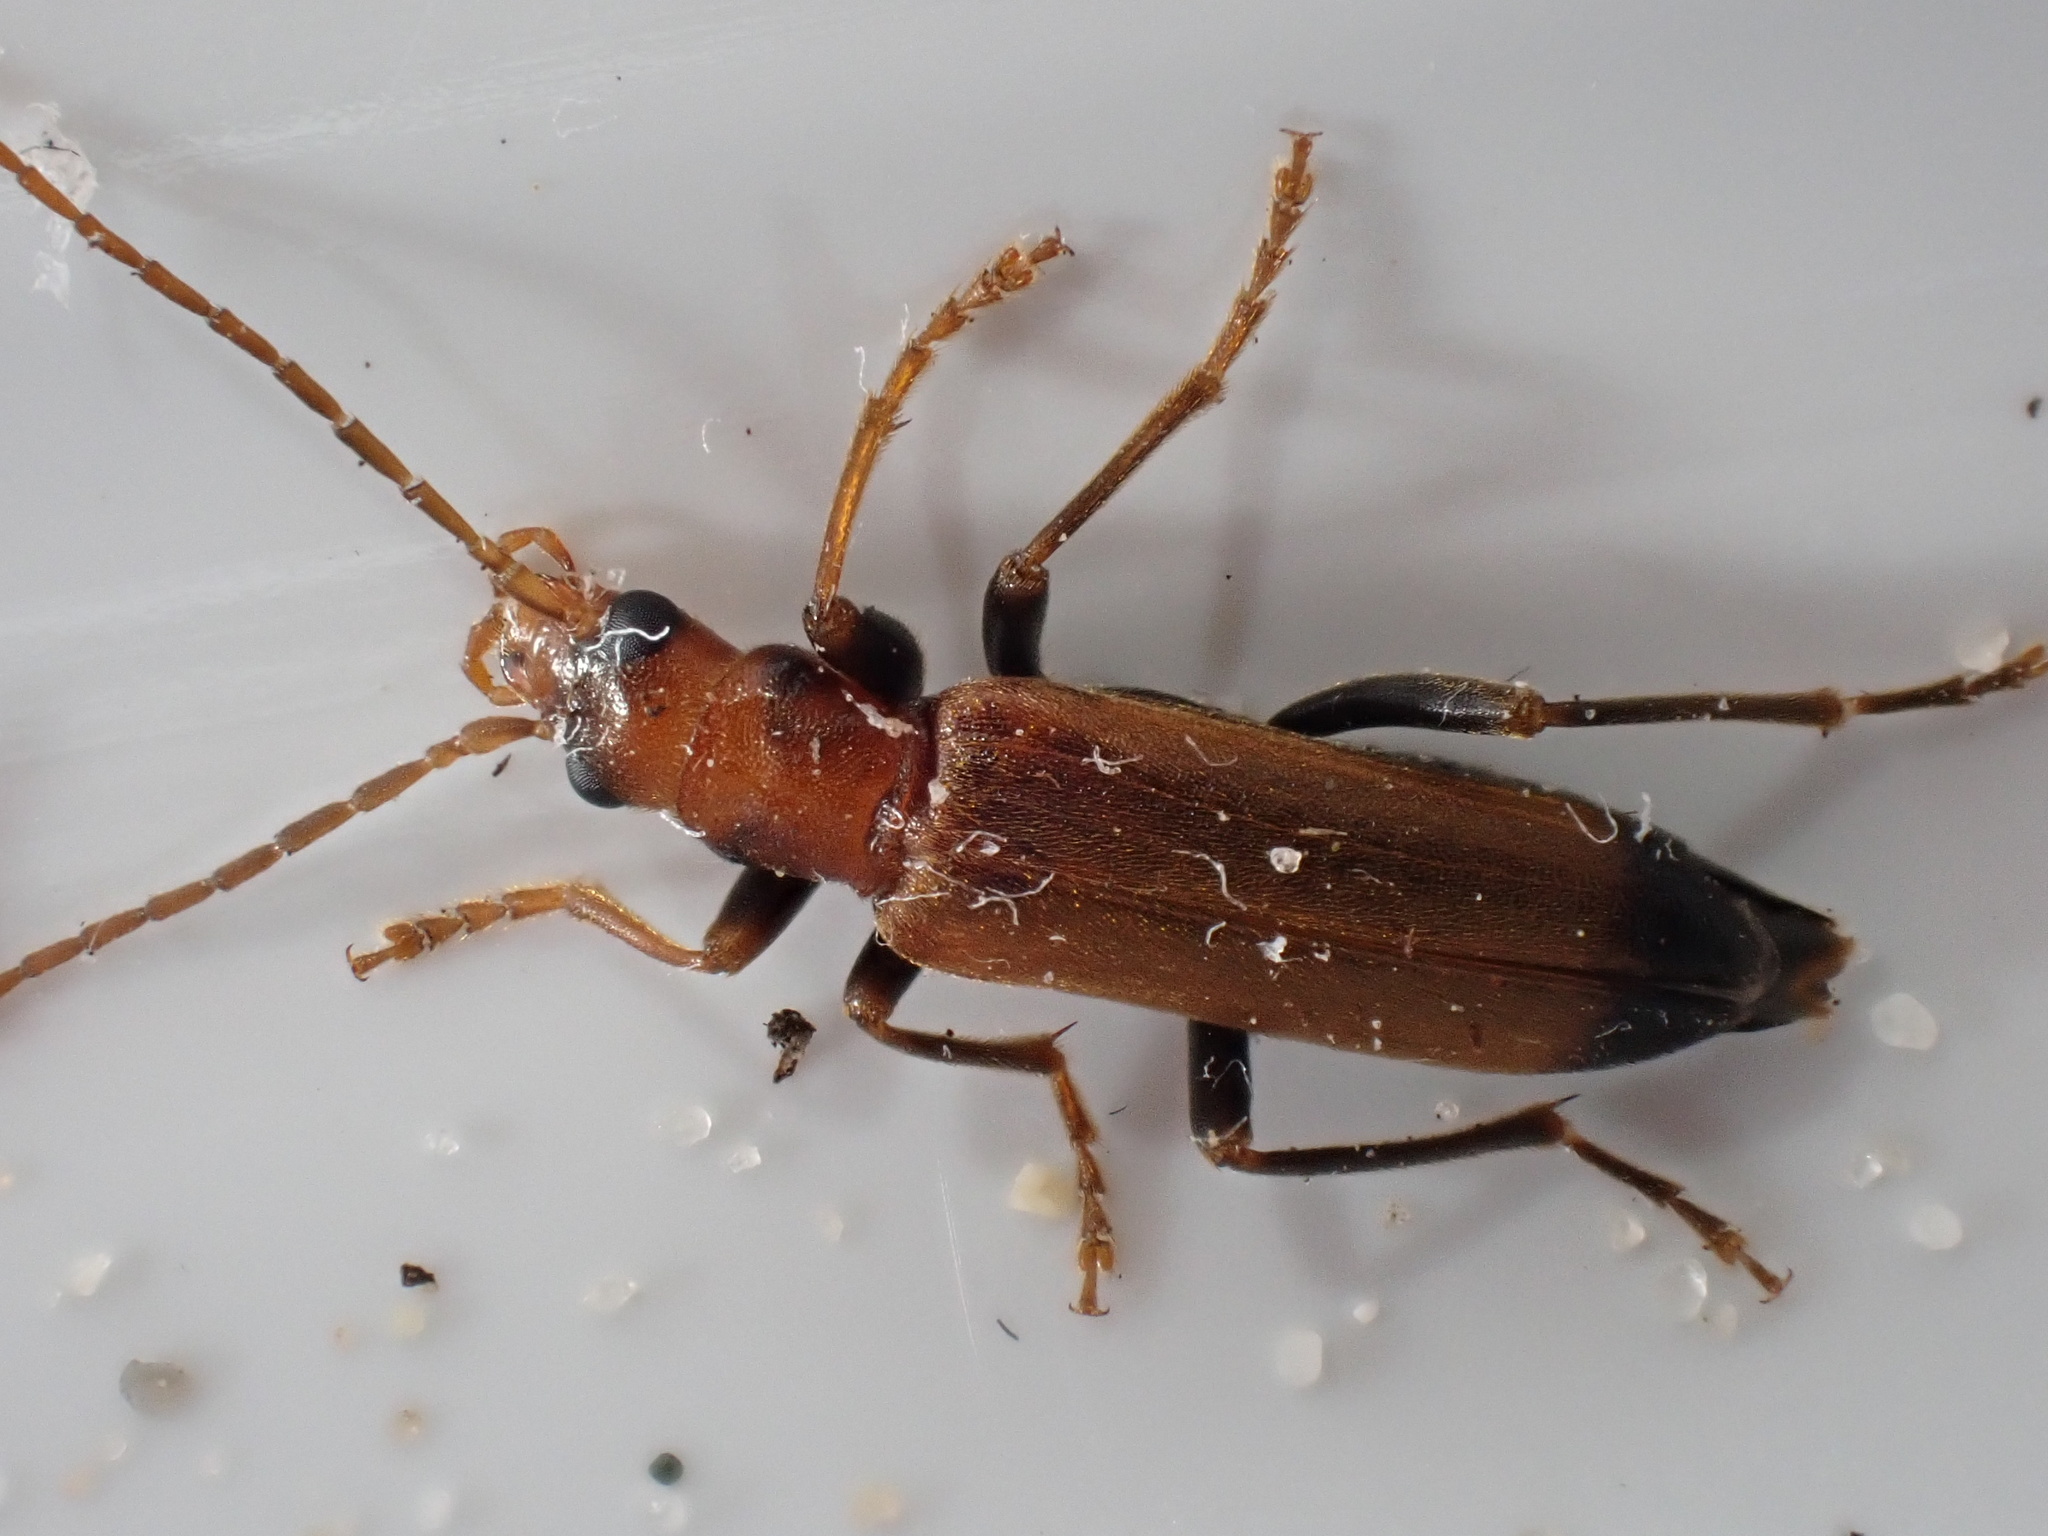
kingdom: Animalia
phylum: Arthropoda
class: Insecta
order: Coleoptera
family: Oedemeridae
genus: Nacerdes
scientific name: Nacerdes melanura
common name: Wharf borer
